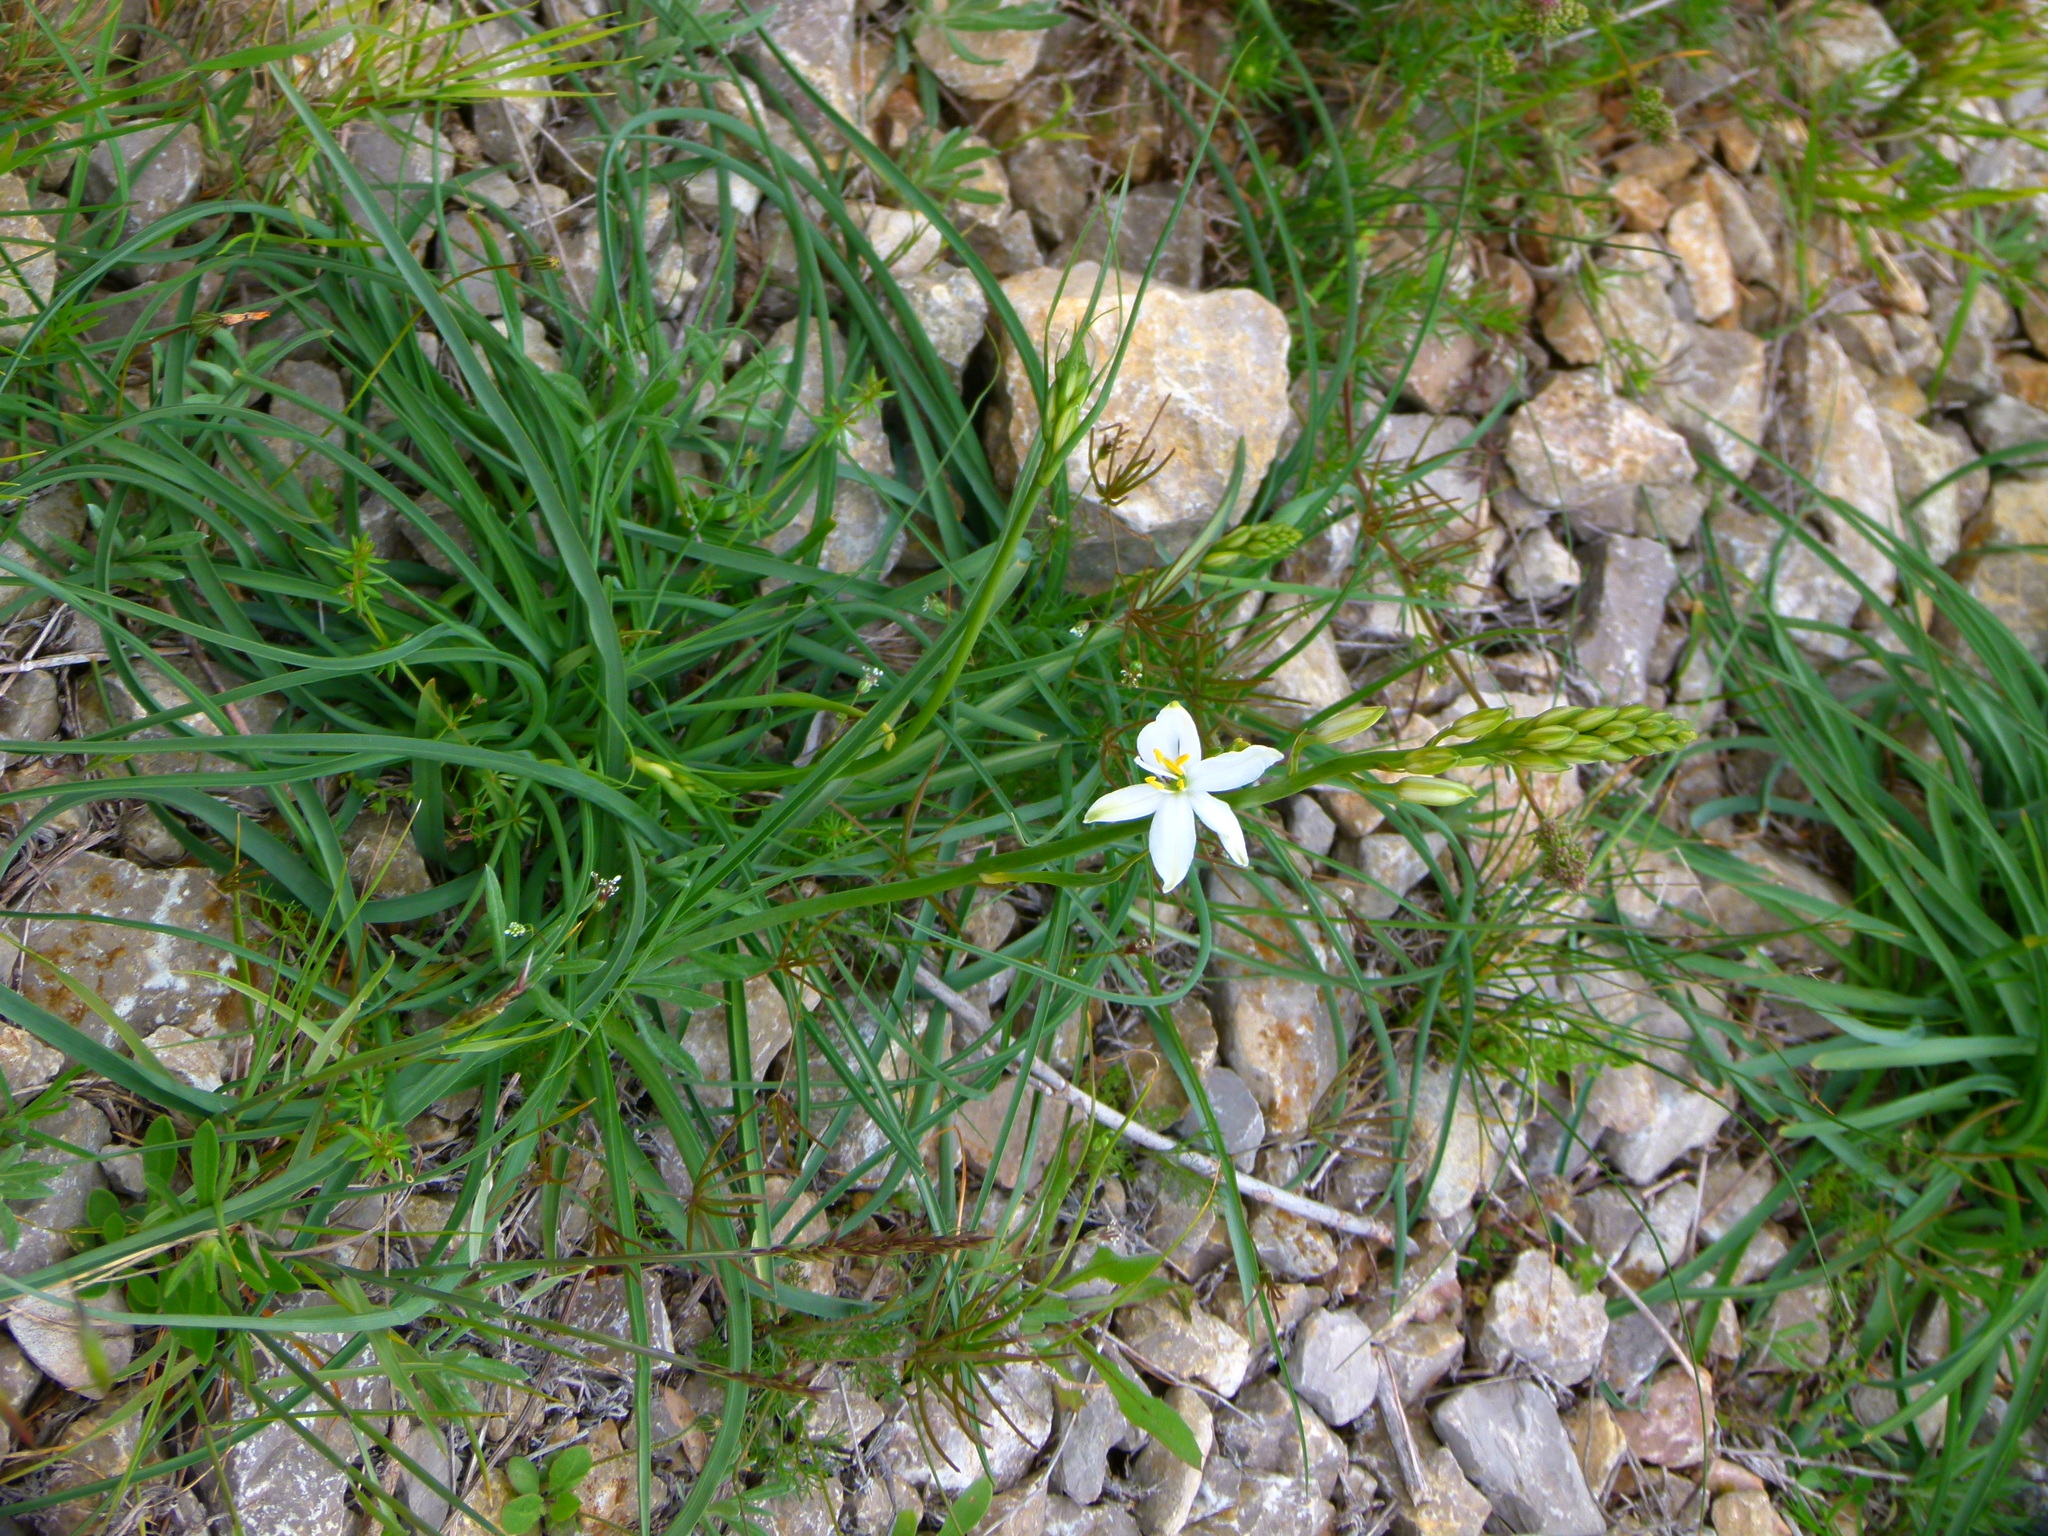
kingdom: Plantae
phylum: Tracheophyta
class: Liliopsida
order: Asparagales
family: Asparagaceae
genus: Anthericum
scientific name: Anthericum liliago
